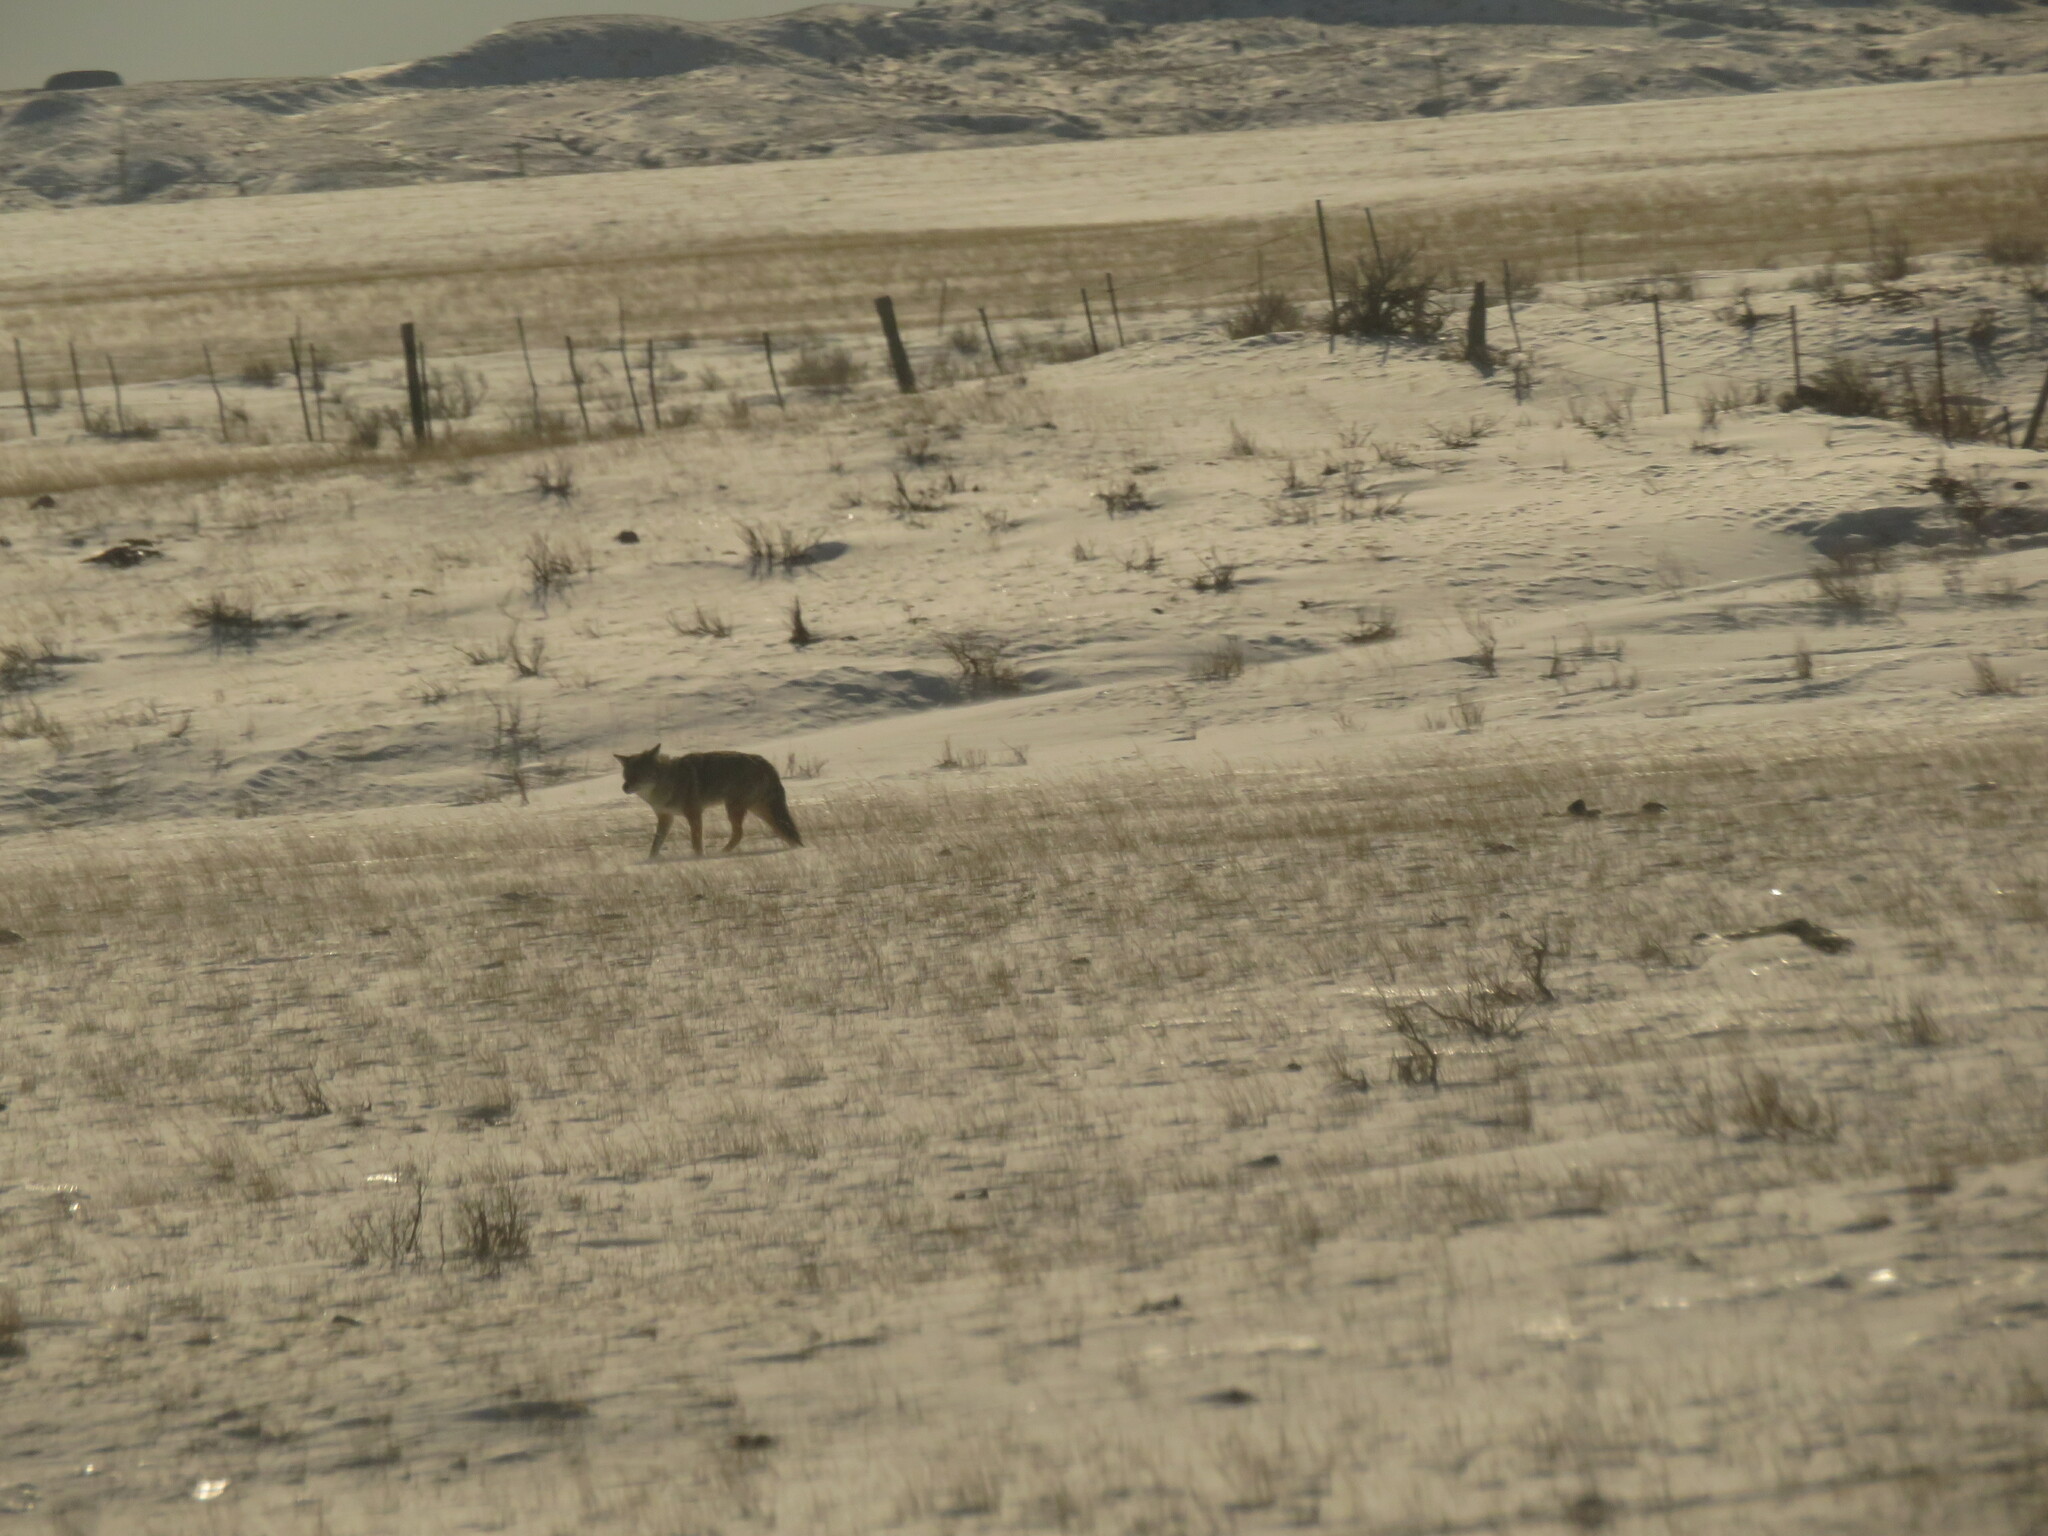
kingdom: Animalia
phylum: Chordata
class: Mammalia
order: Carnivora
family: Canidae
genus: Canis
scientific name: Canis latrans
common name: Coyote
